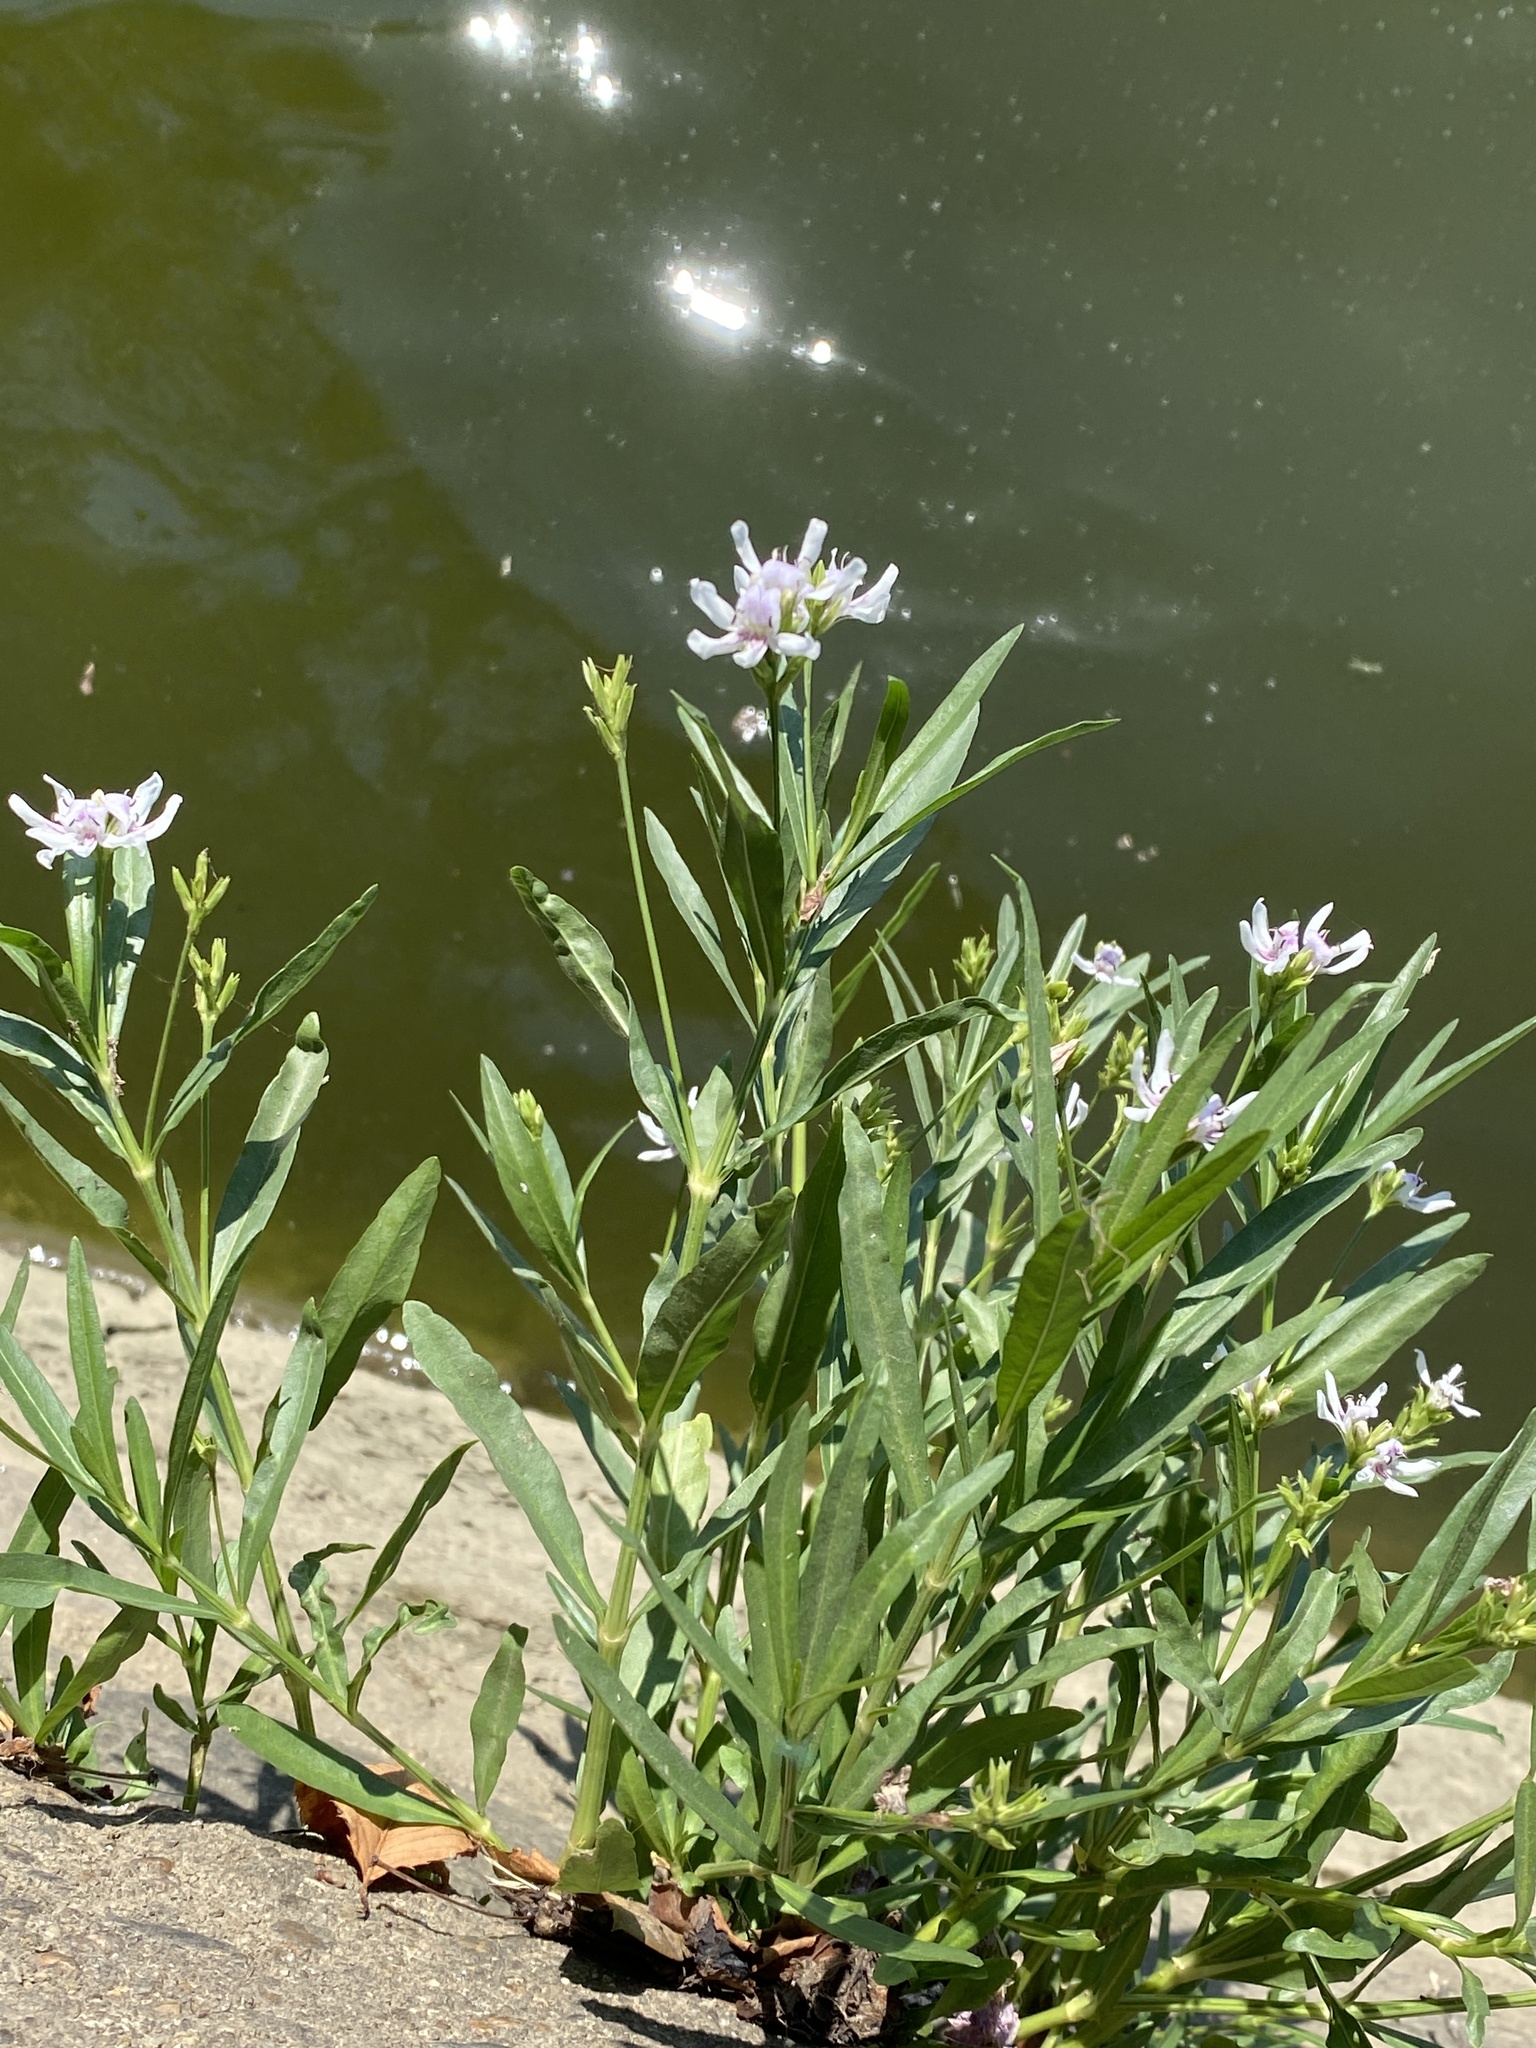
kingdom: Plantae
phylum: Tracheophyta
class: Magnoliopsida
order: Lamiales
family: Acanthaceae
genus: Dianthera
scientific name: Dianthera americana
